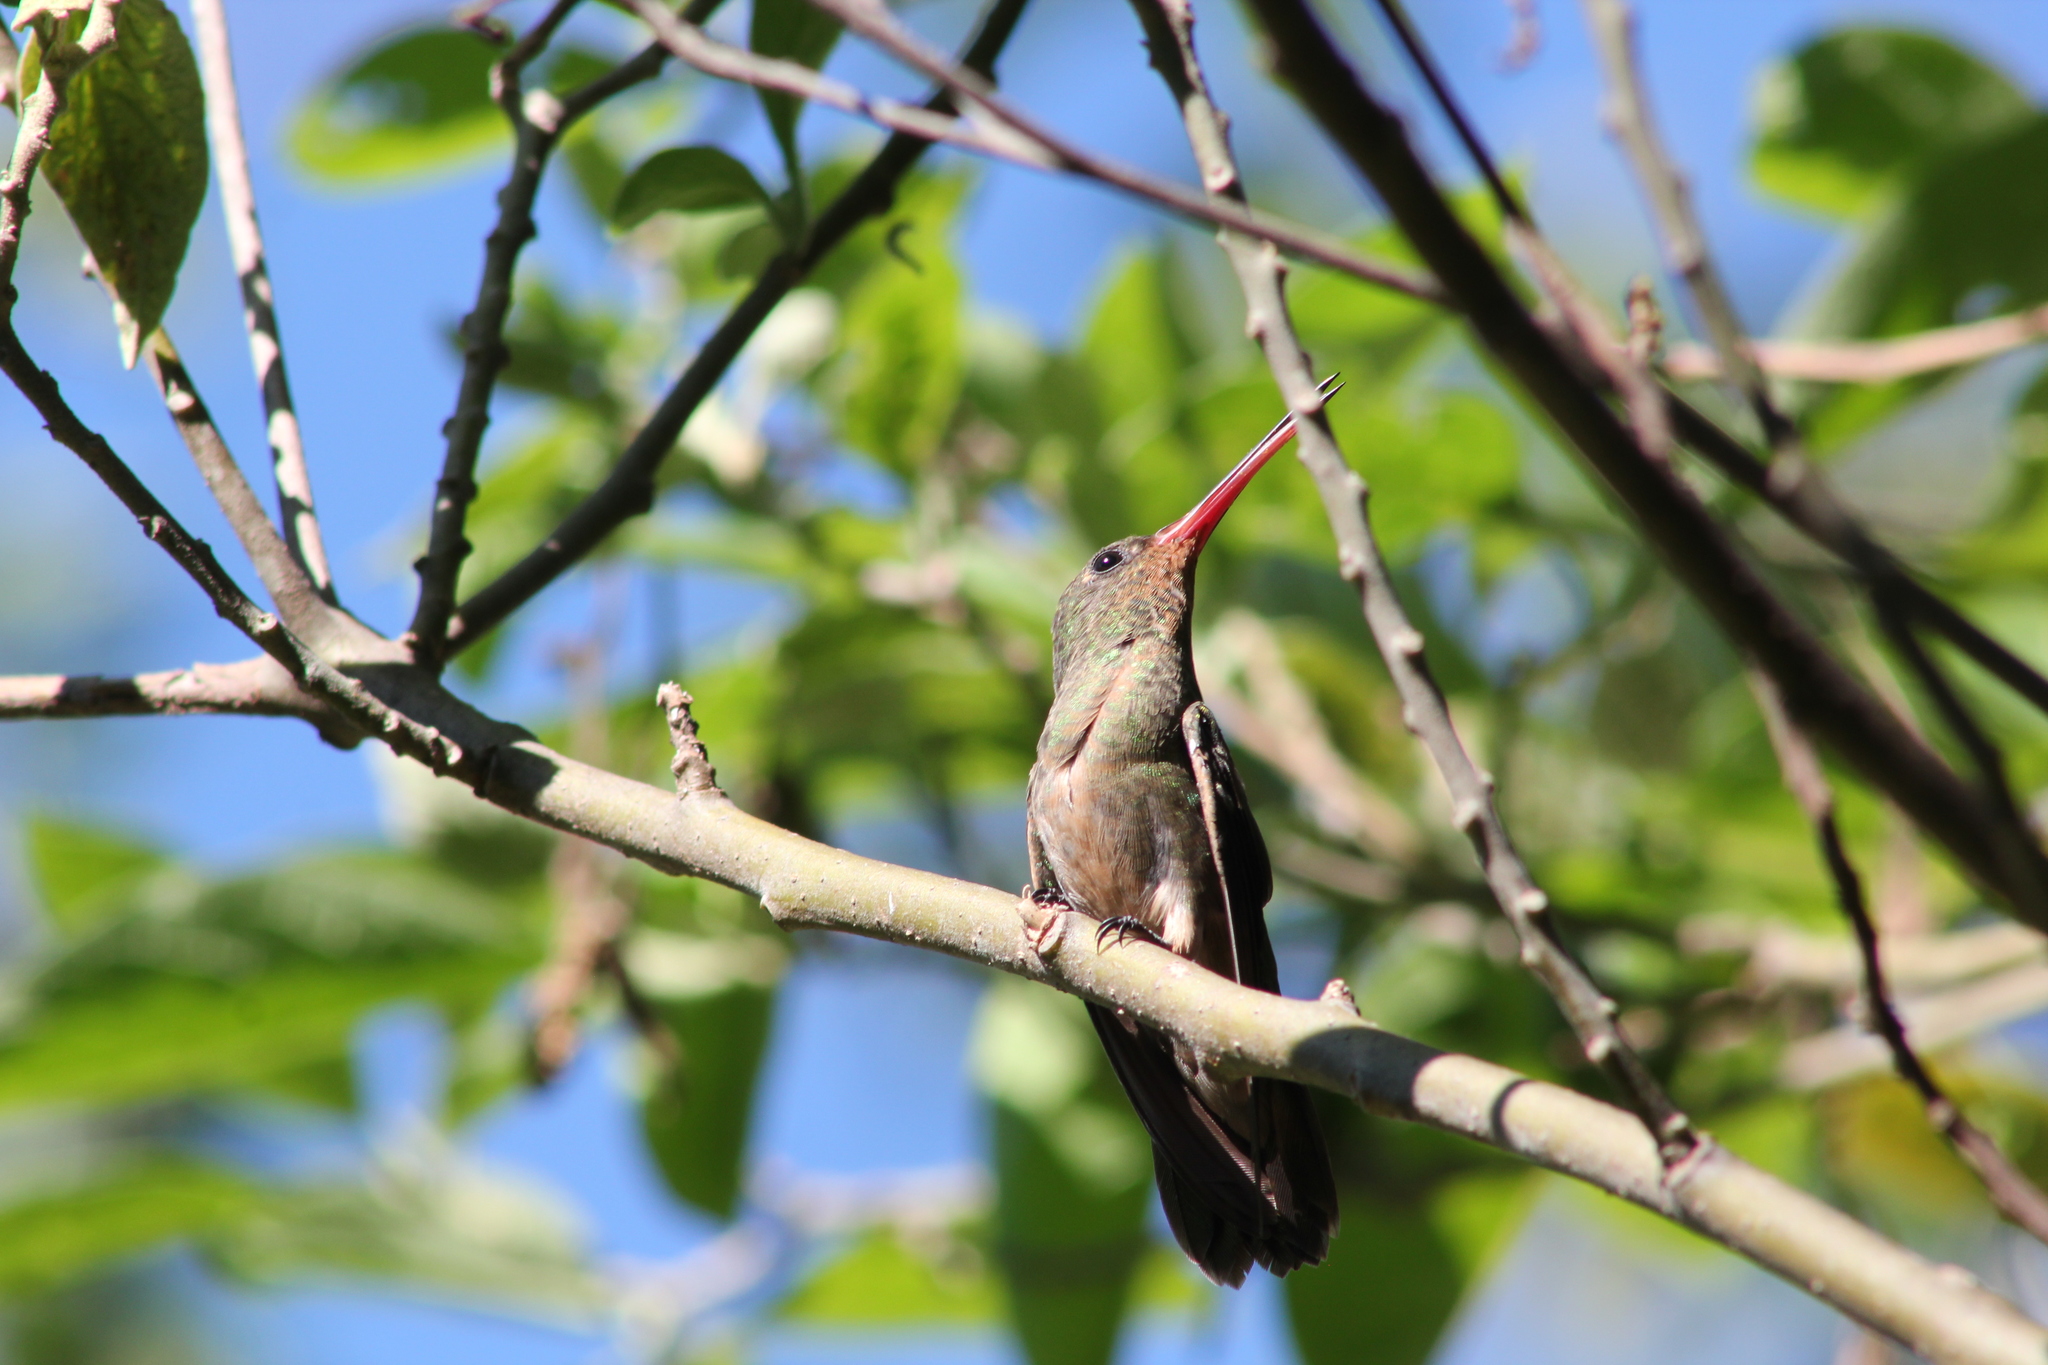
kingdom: Animalia
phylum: Chordata
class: Aves
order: Apodiformes
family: Trochilidae
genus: Hylocharis
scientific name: Hylocharis chrysura
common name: Gilded sapphire
